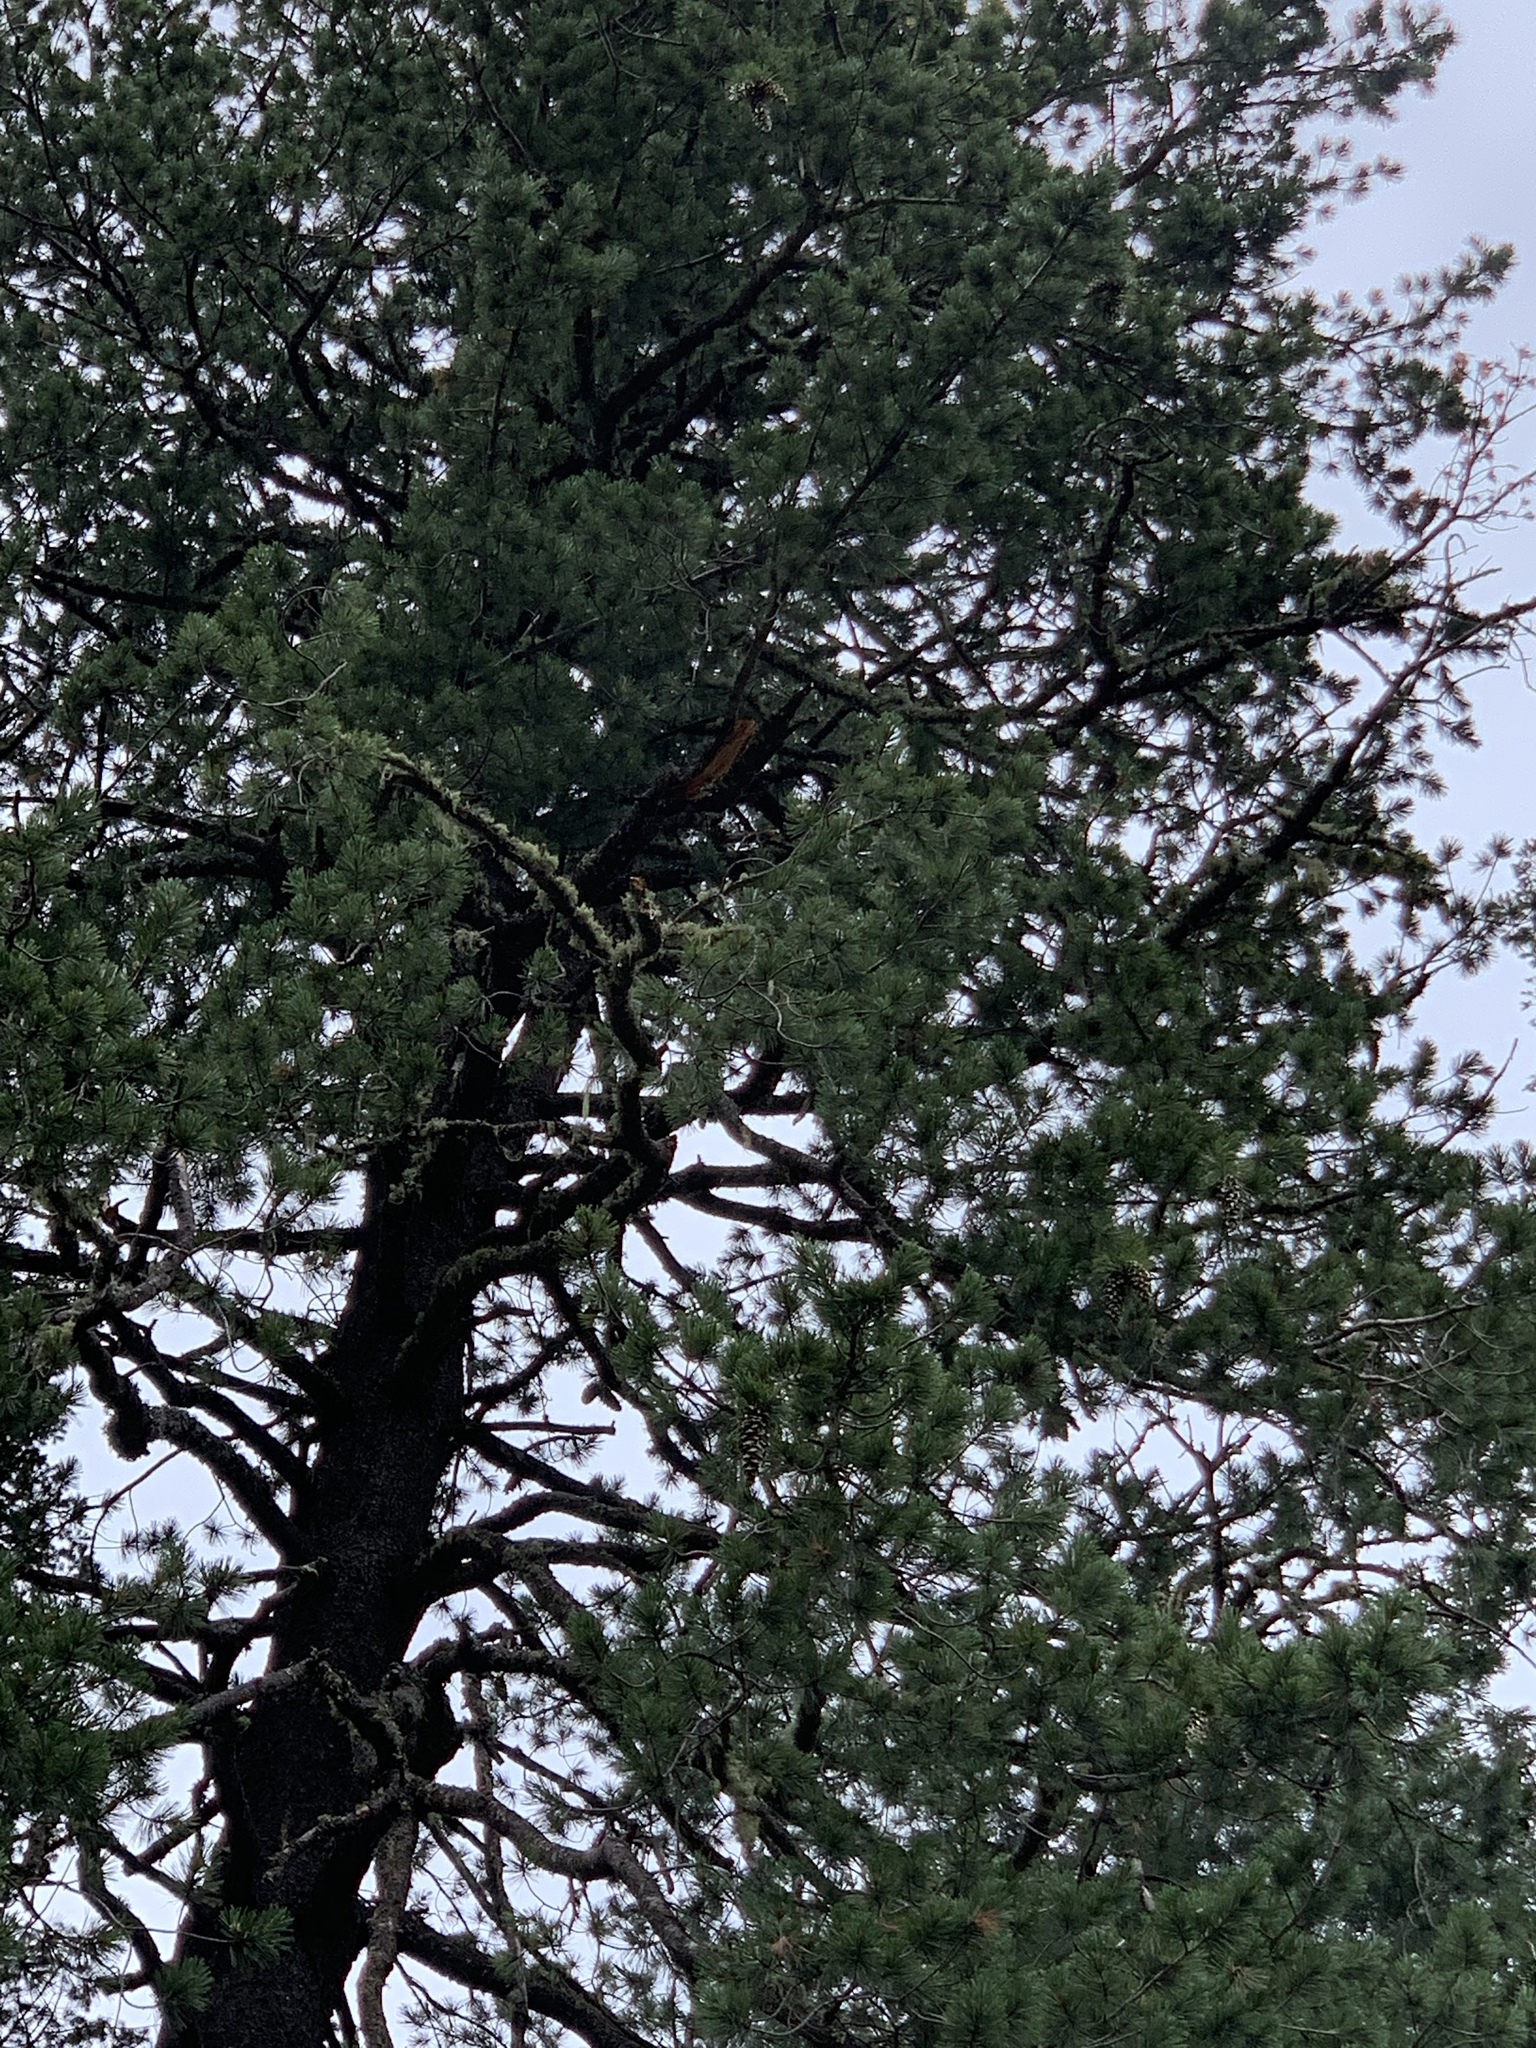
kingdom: Plantae
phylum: Tracheophyta
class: Pinopsida
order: Pinales
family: Pinaceae
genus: Pinus
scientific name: Pinus strobiformis
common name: Southwestern white pine
